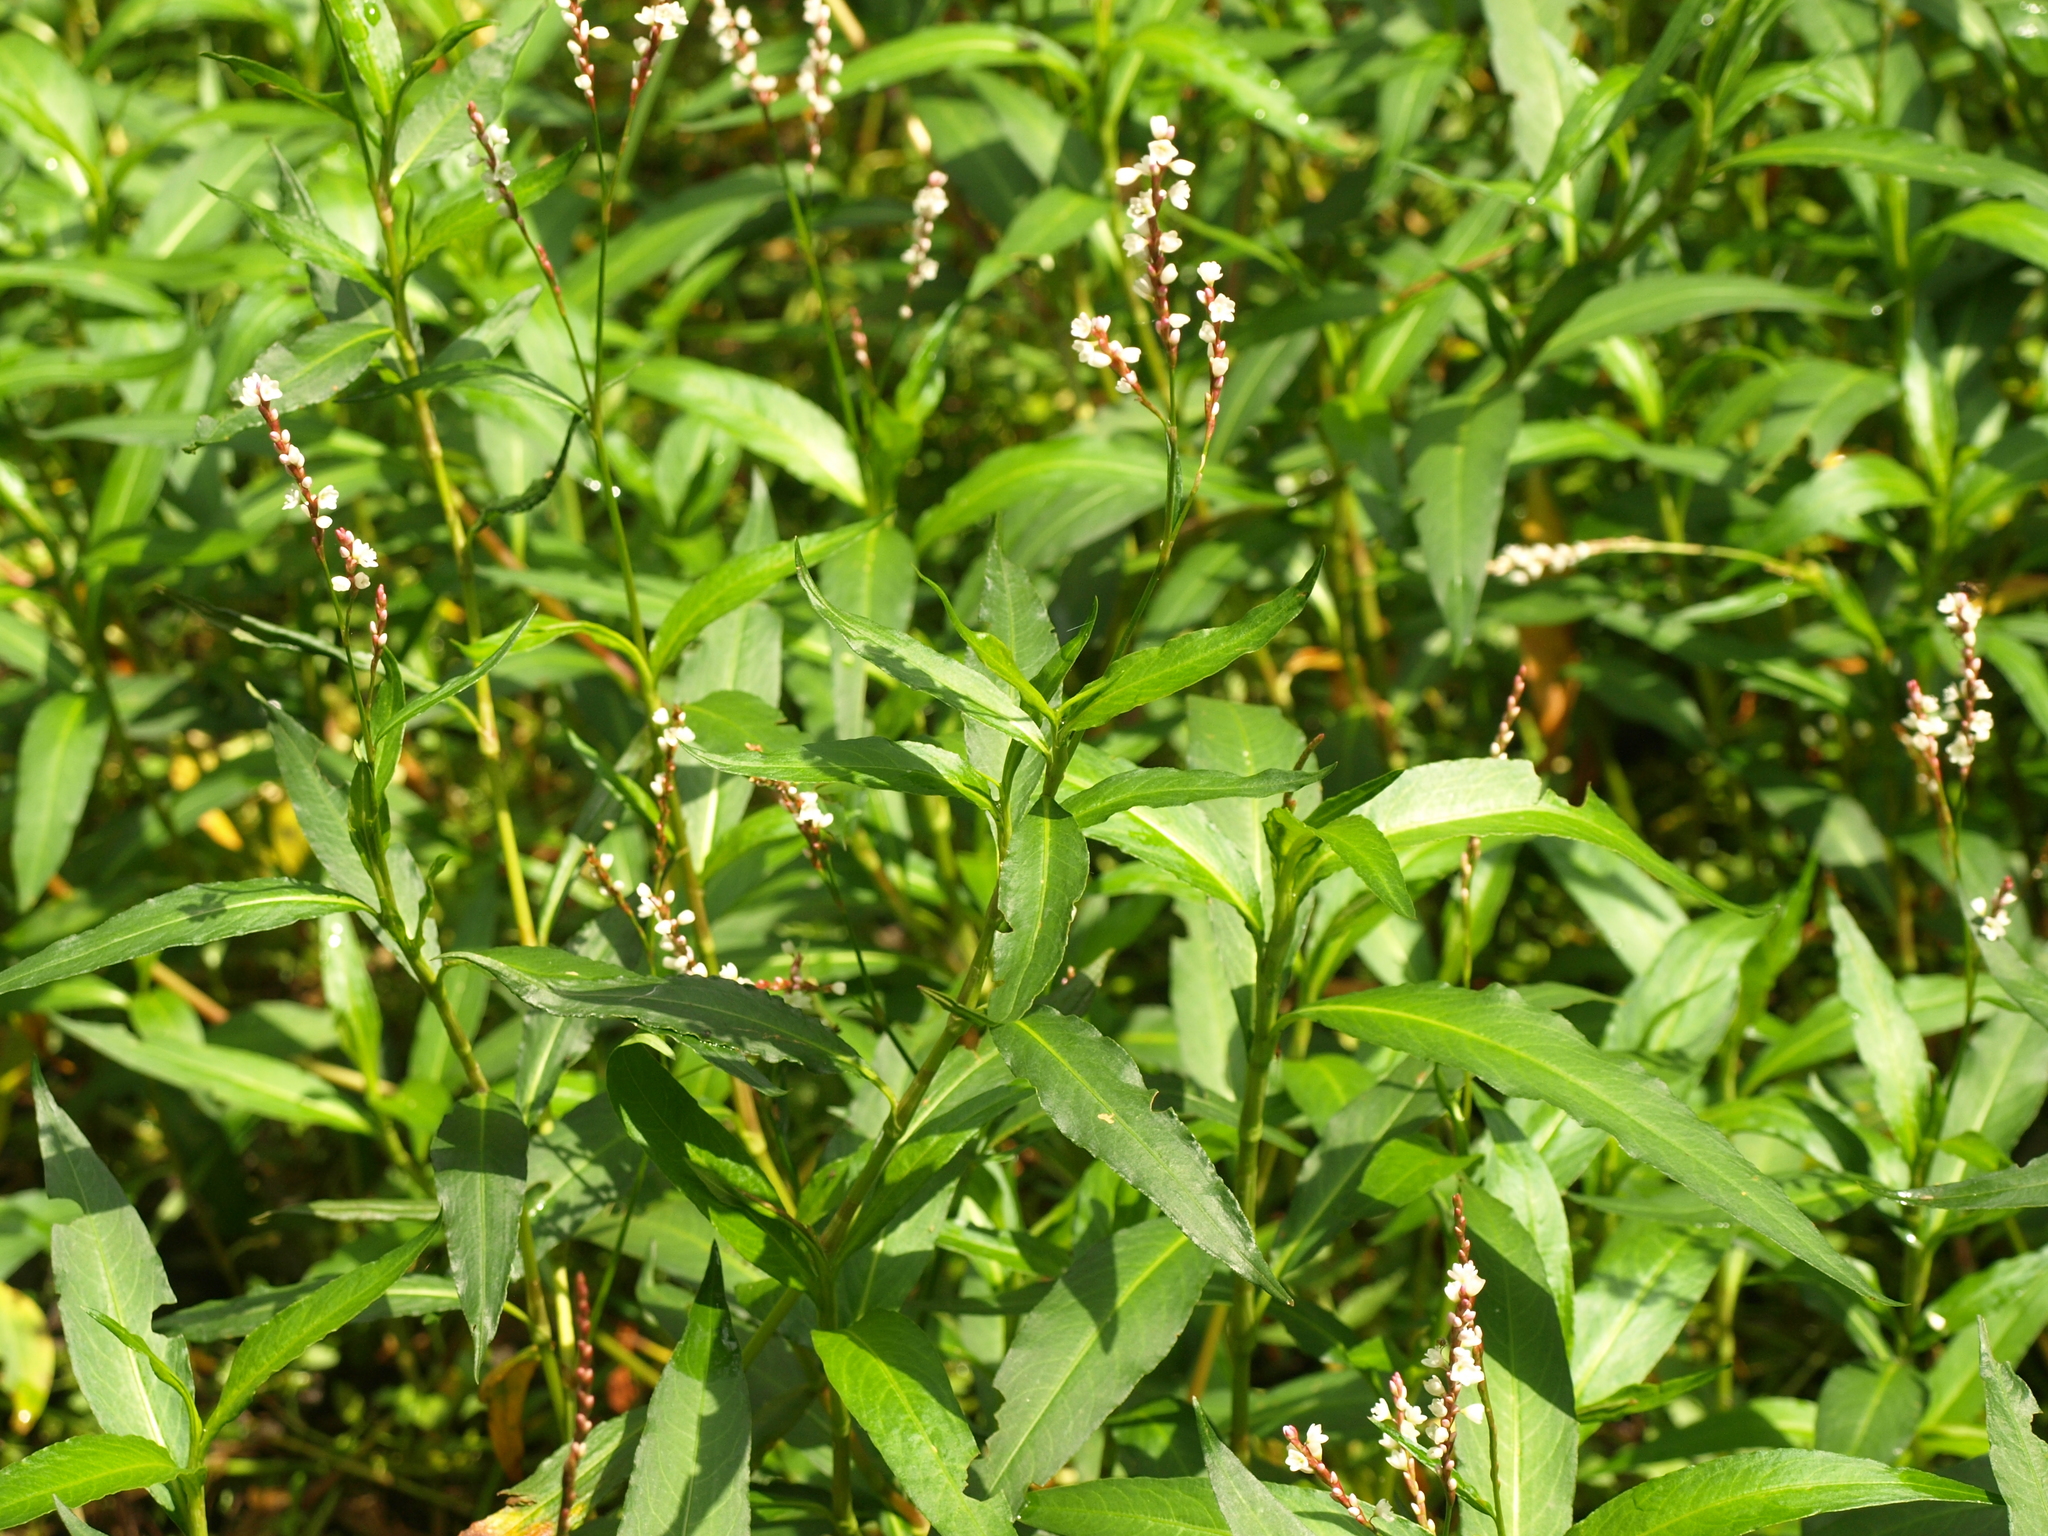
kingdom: Plantae
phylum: Tracheophyta
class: Magnoliopsida
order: Caryophyllales
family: Polygonaceae
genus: Persicaria
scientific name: Persicaria punctata
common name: Dotted smartweed
